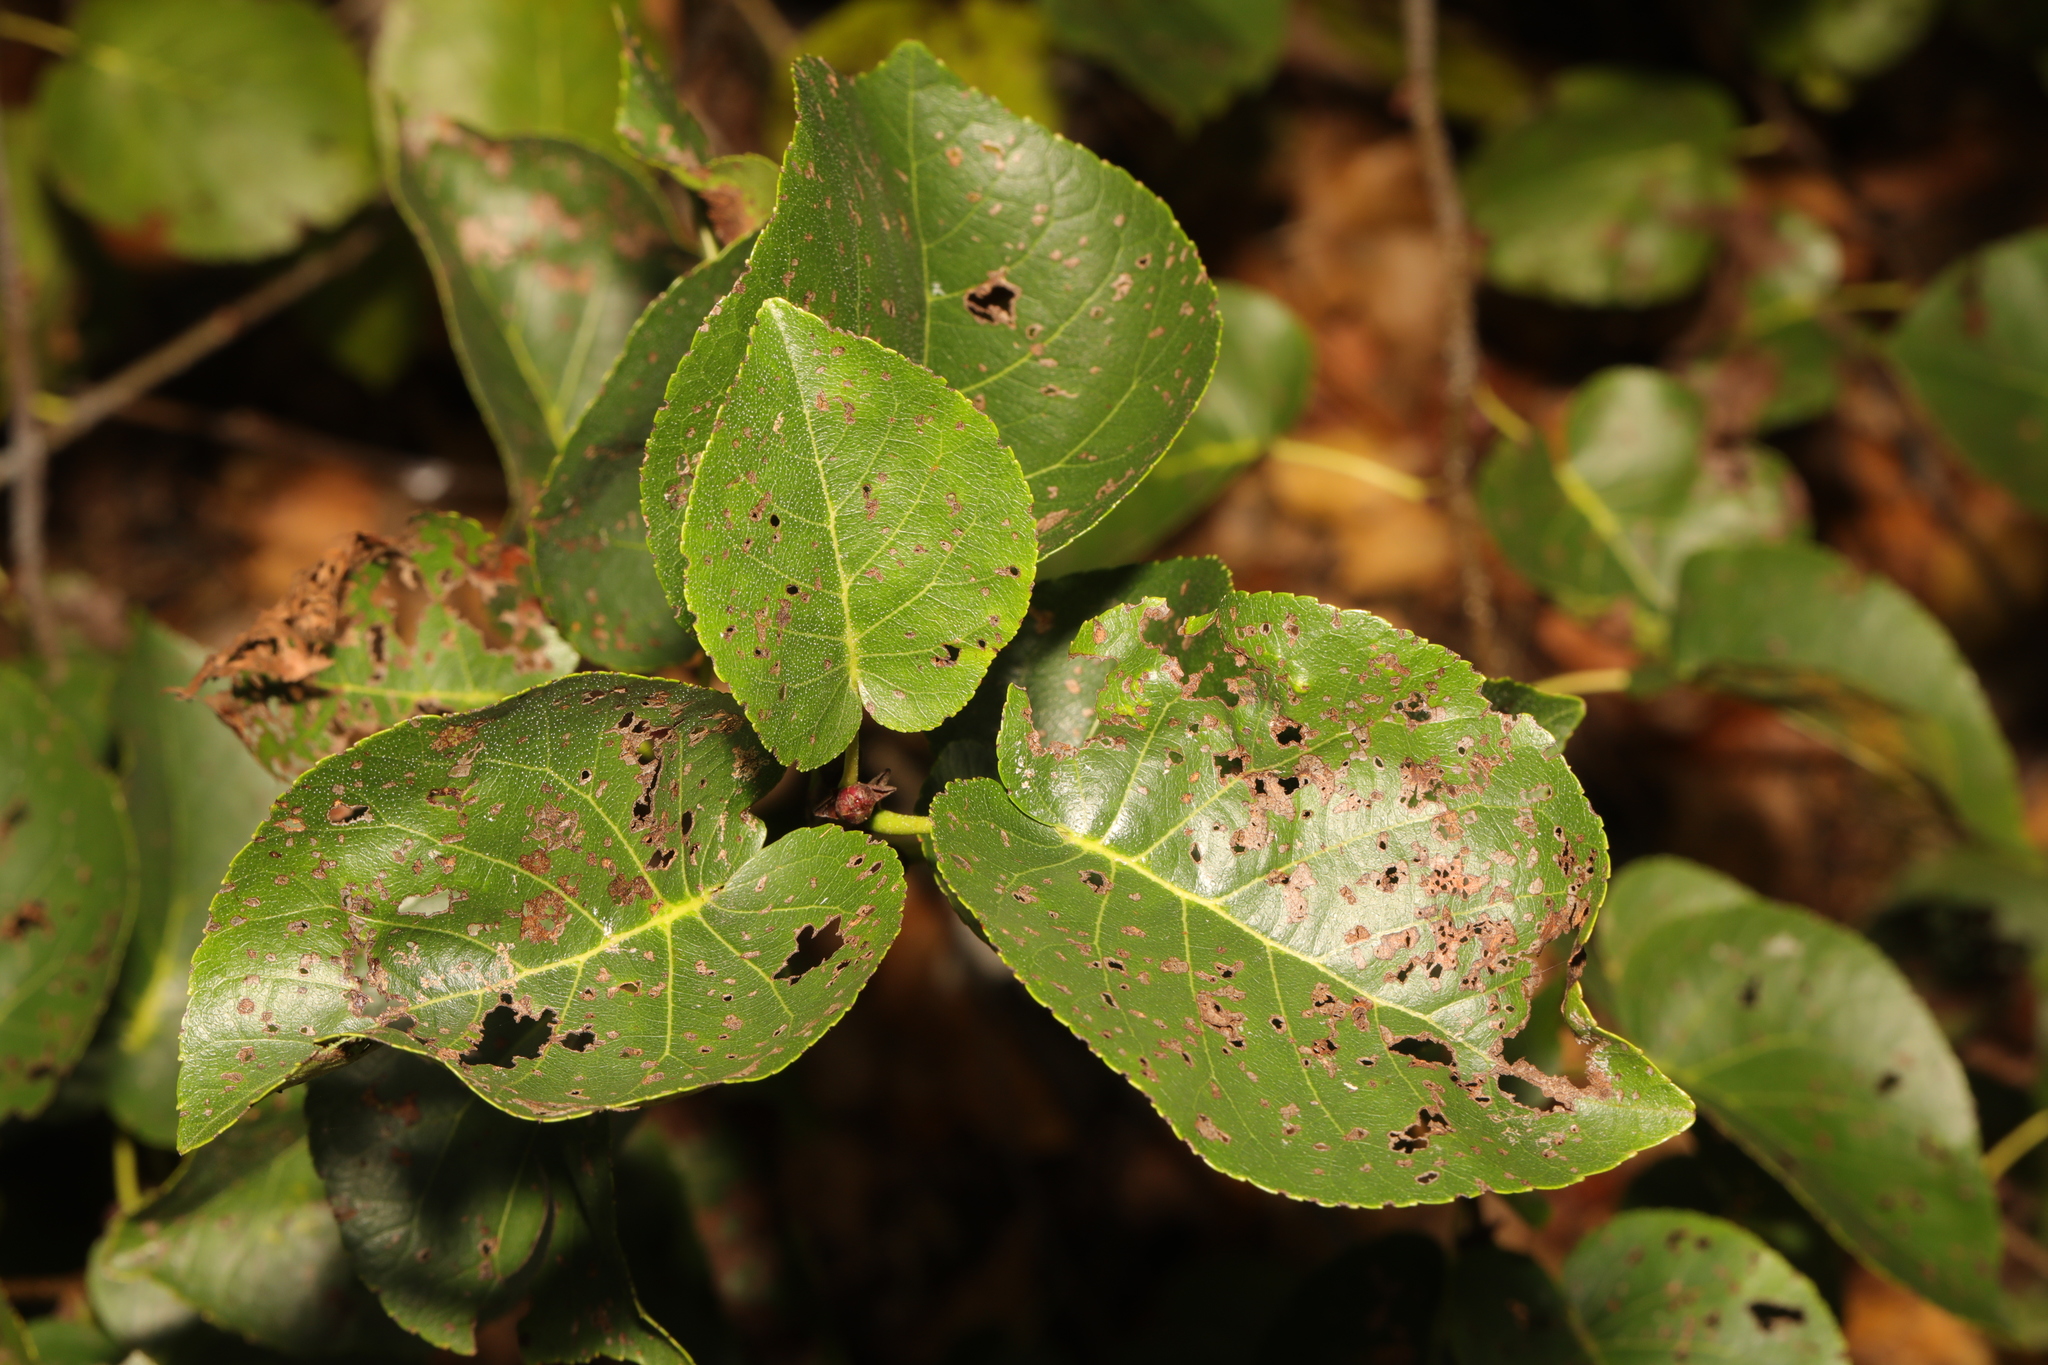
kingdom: Plantae
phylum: Tracheophyta
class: Magnoliopsida
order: Fagales
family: Betulaceae
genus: Alnus
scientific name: Alnus cordata
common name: Italian alder
